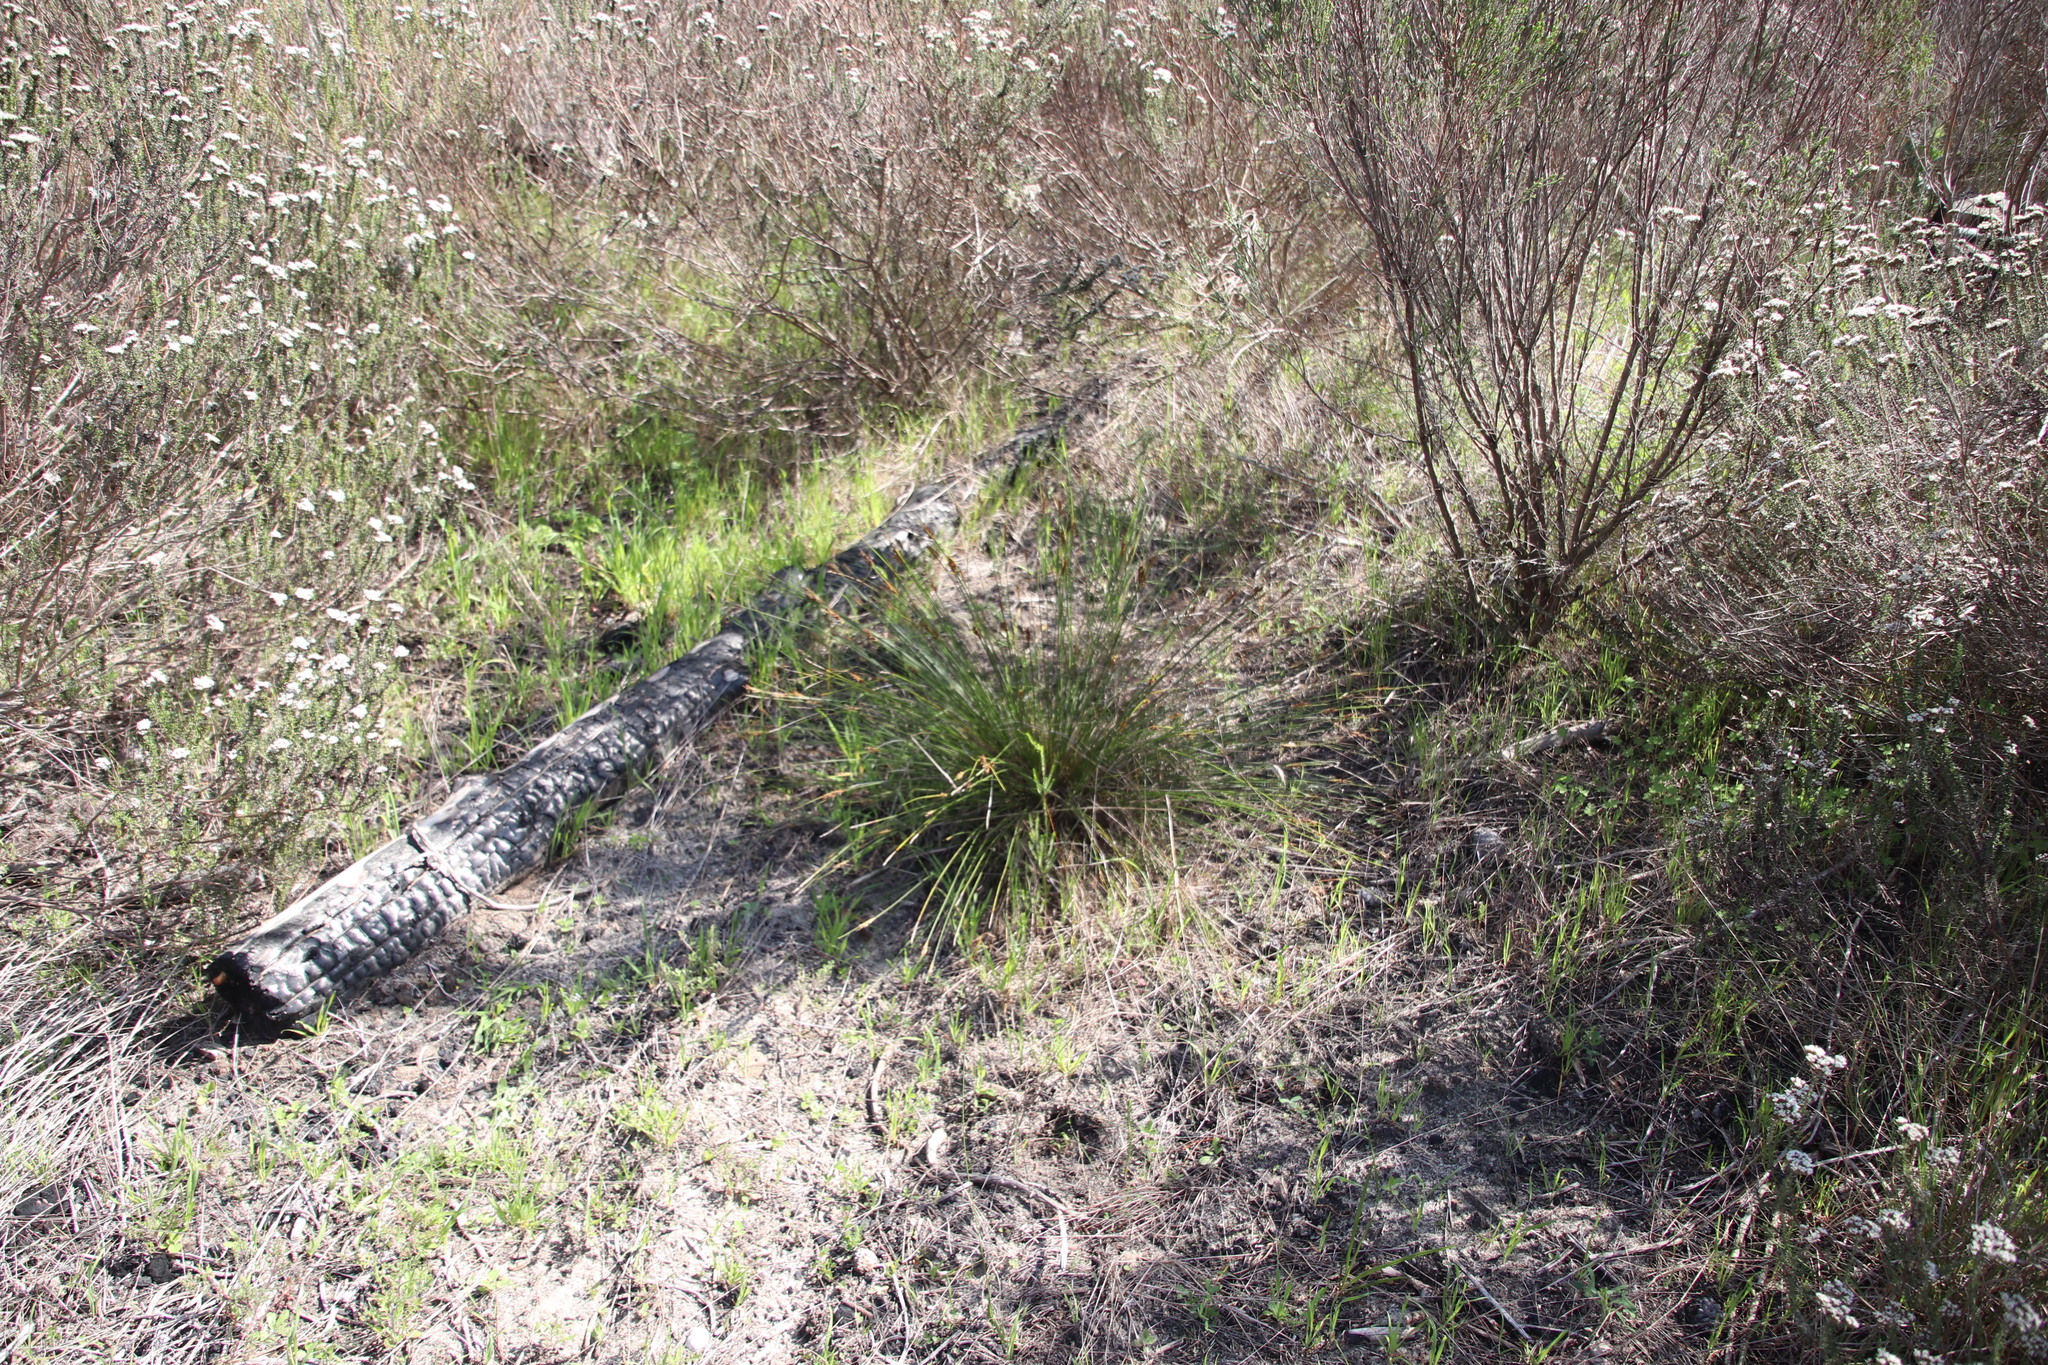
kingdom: Plantae
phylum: Tracheophyta
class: Liliopsida
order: Poales
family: Cyperaceae
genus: Schoenus
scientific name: Schoenus cuspidatus
